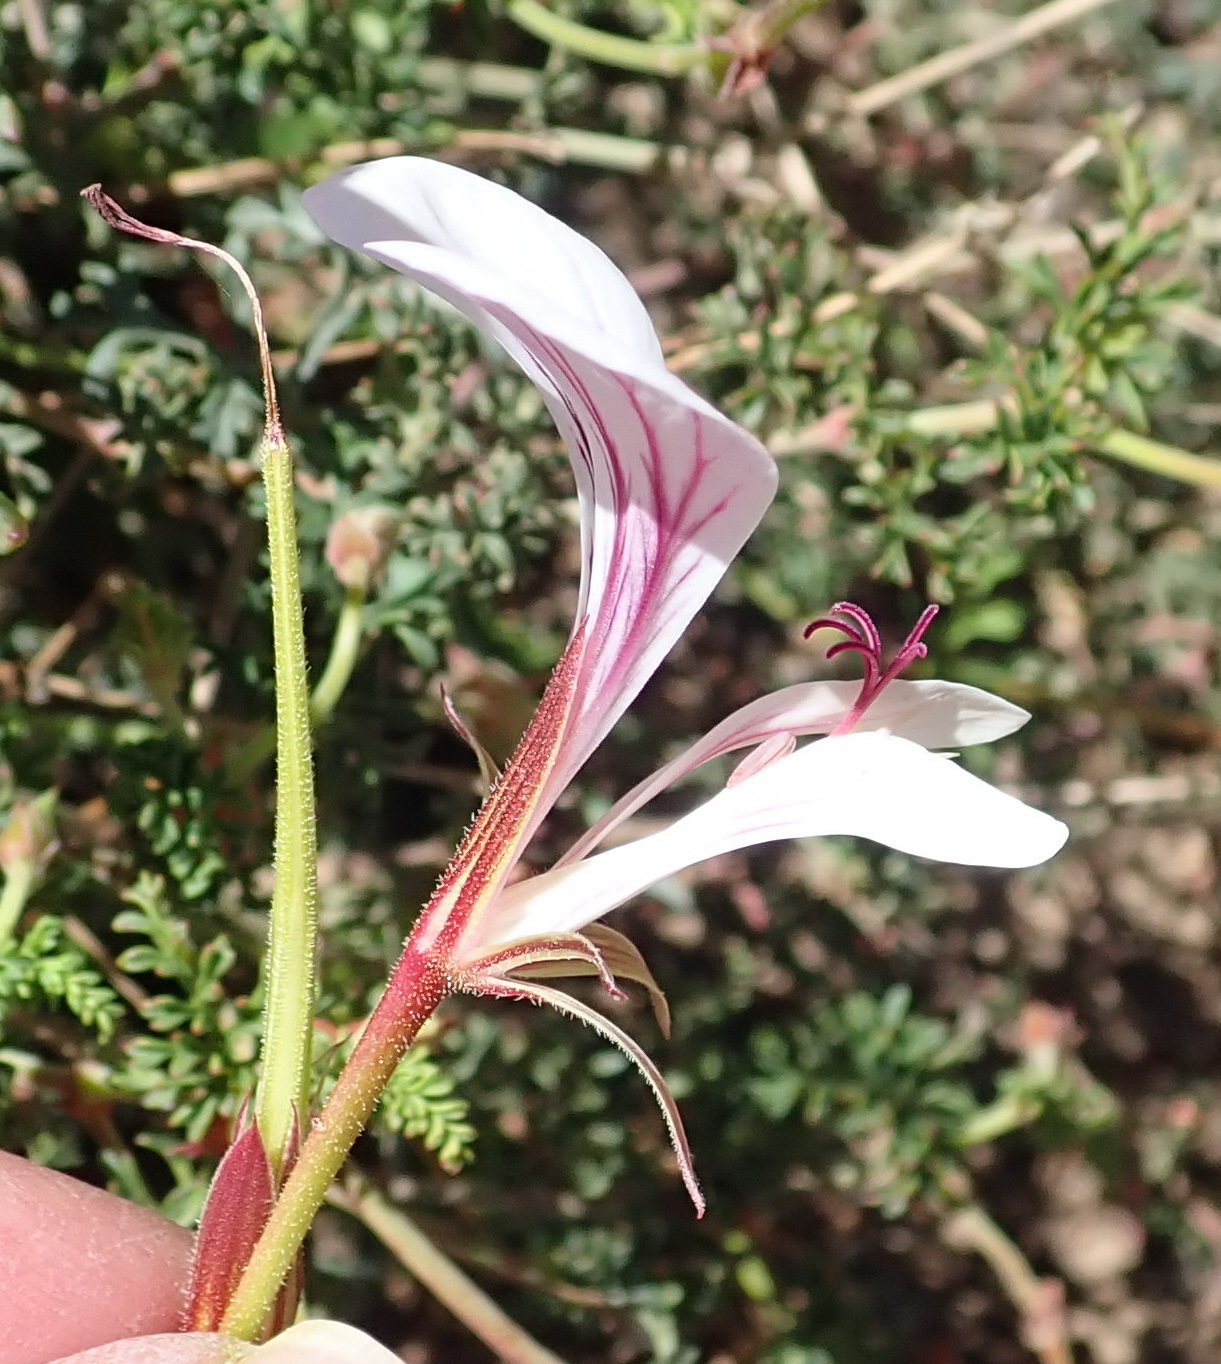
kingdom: Plantae
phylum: Tracheophyta
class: Magnoliopsida
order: Geraniales
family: Geraniaceae
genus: Pelargonium
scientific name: Pelargonium myrrhifolium
